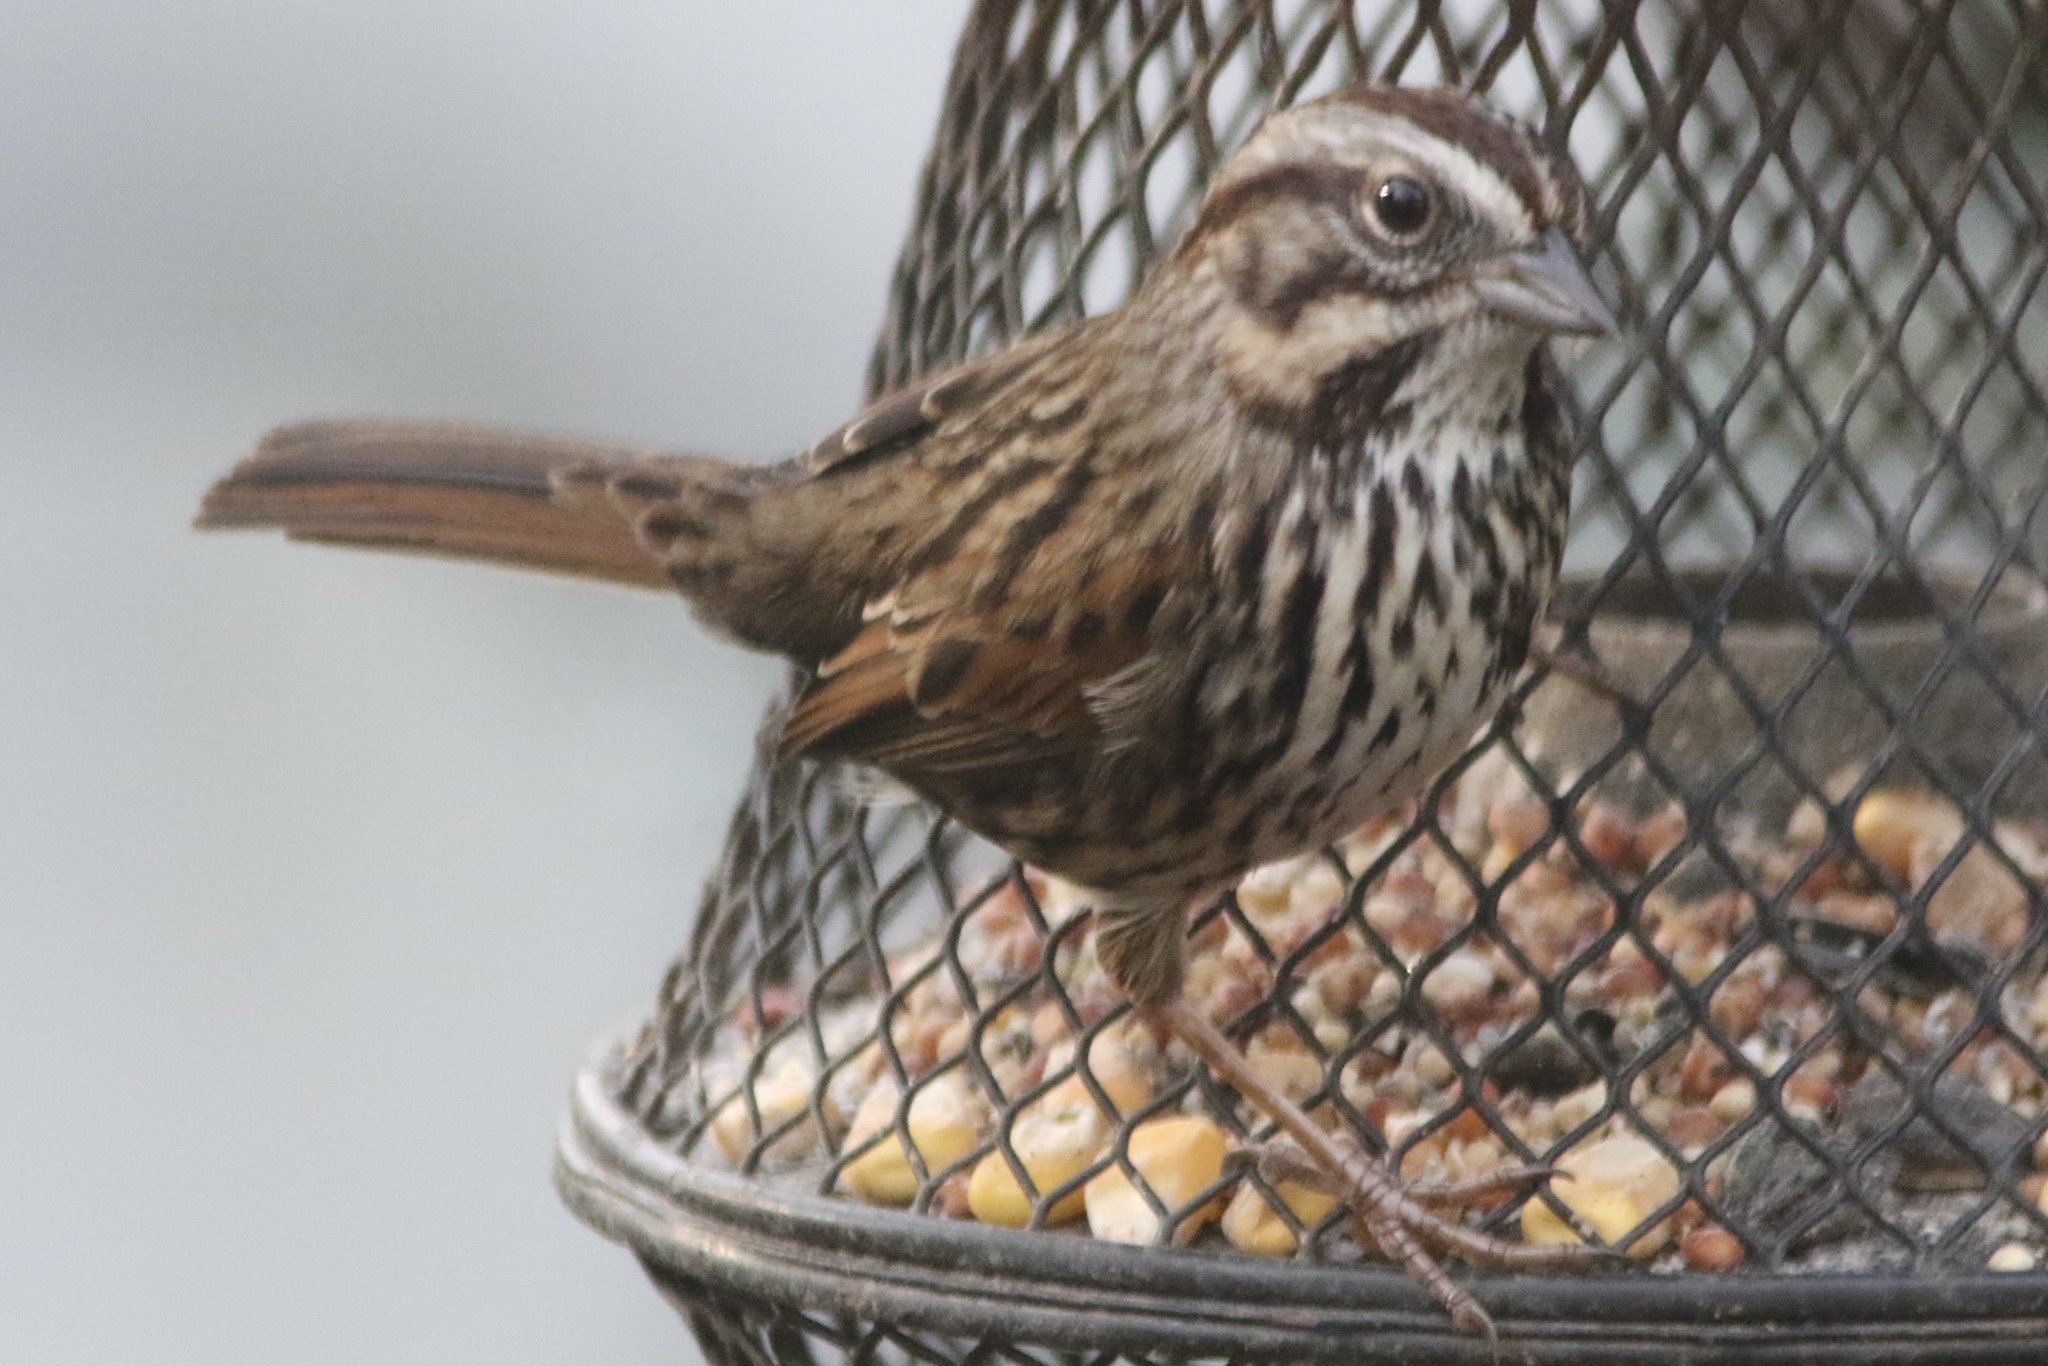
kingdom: Animalia
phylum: Chordata
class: Aves
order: Passeriformes
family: Passerellidae
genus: Melospiza
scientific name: Melospiza melodia
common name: Song sparrow
